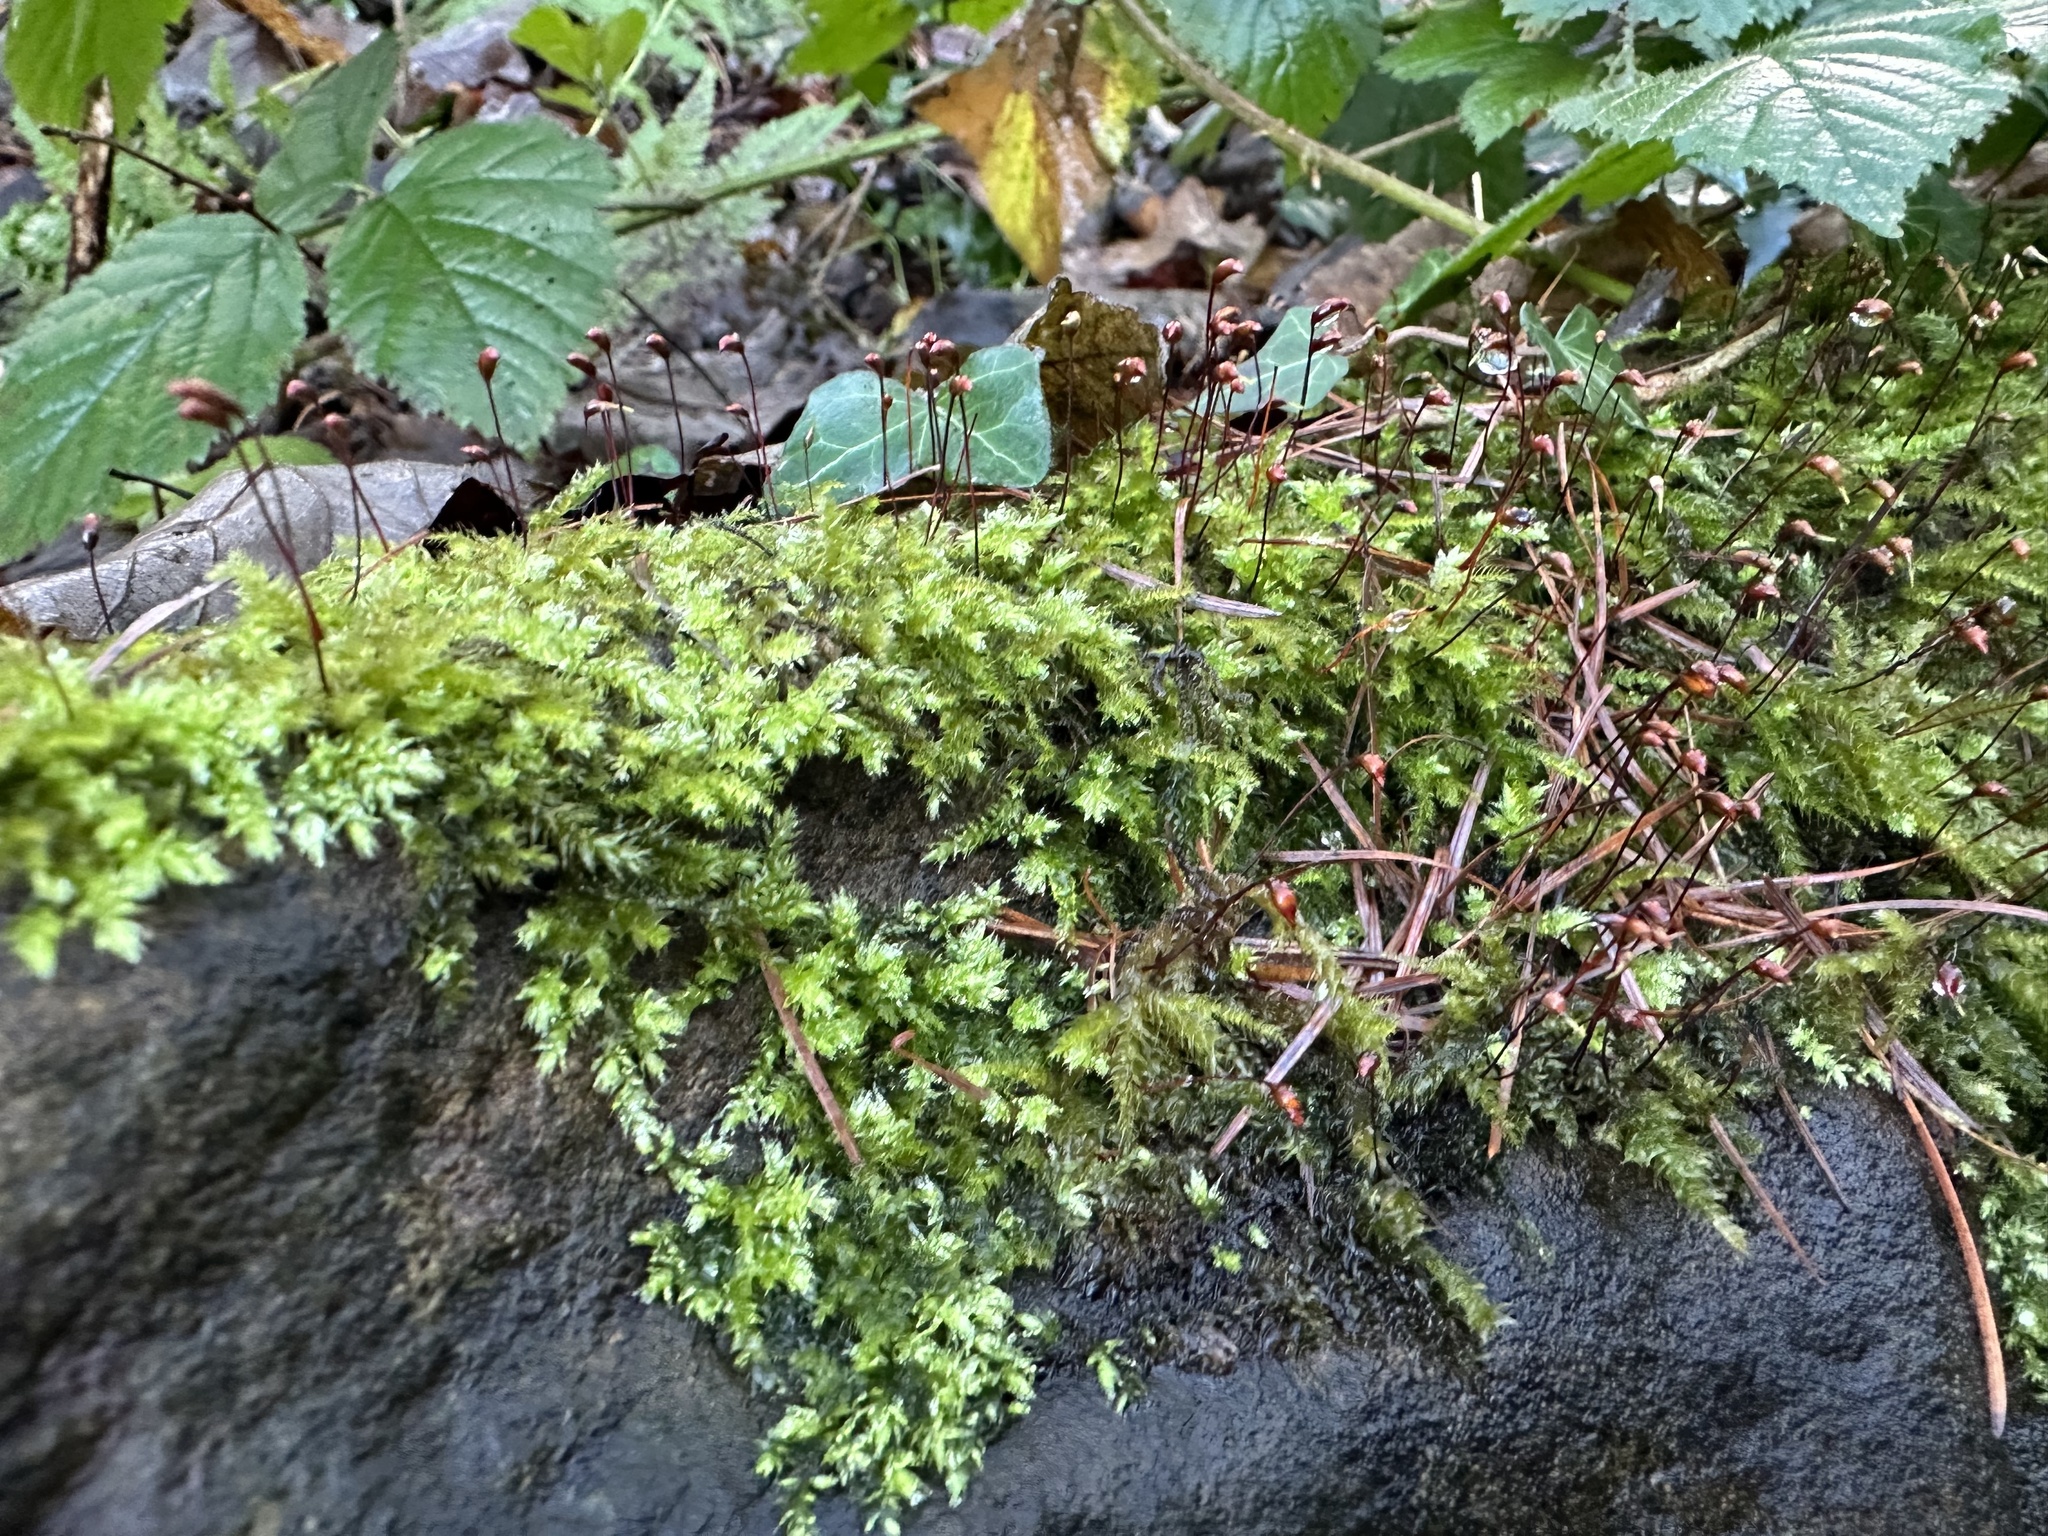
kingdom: Plantae
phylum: Bryophyta
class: Bryopsida
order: Hypnales
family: Brachytheciaceae
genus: Brachythecium
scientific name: Brachythecium rutabulum
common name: Rough-stalked feather-moss
